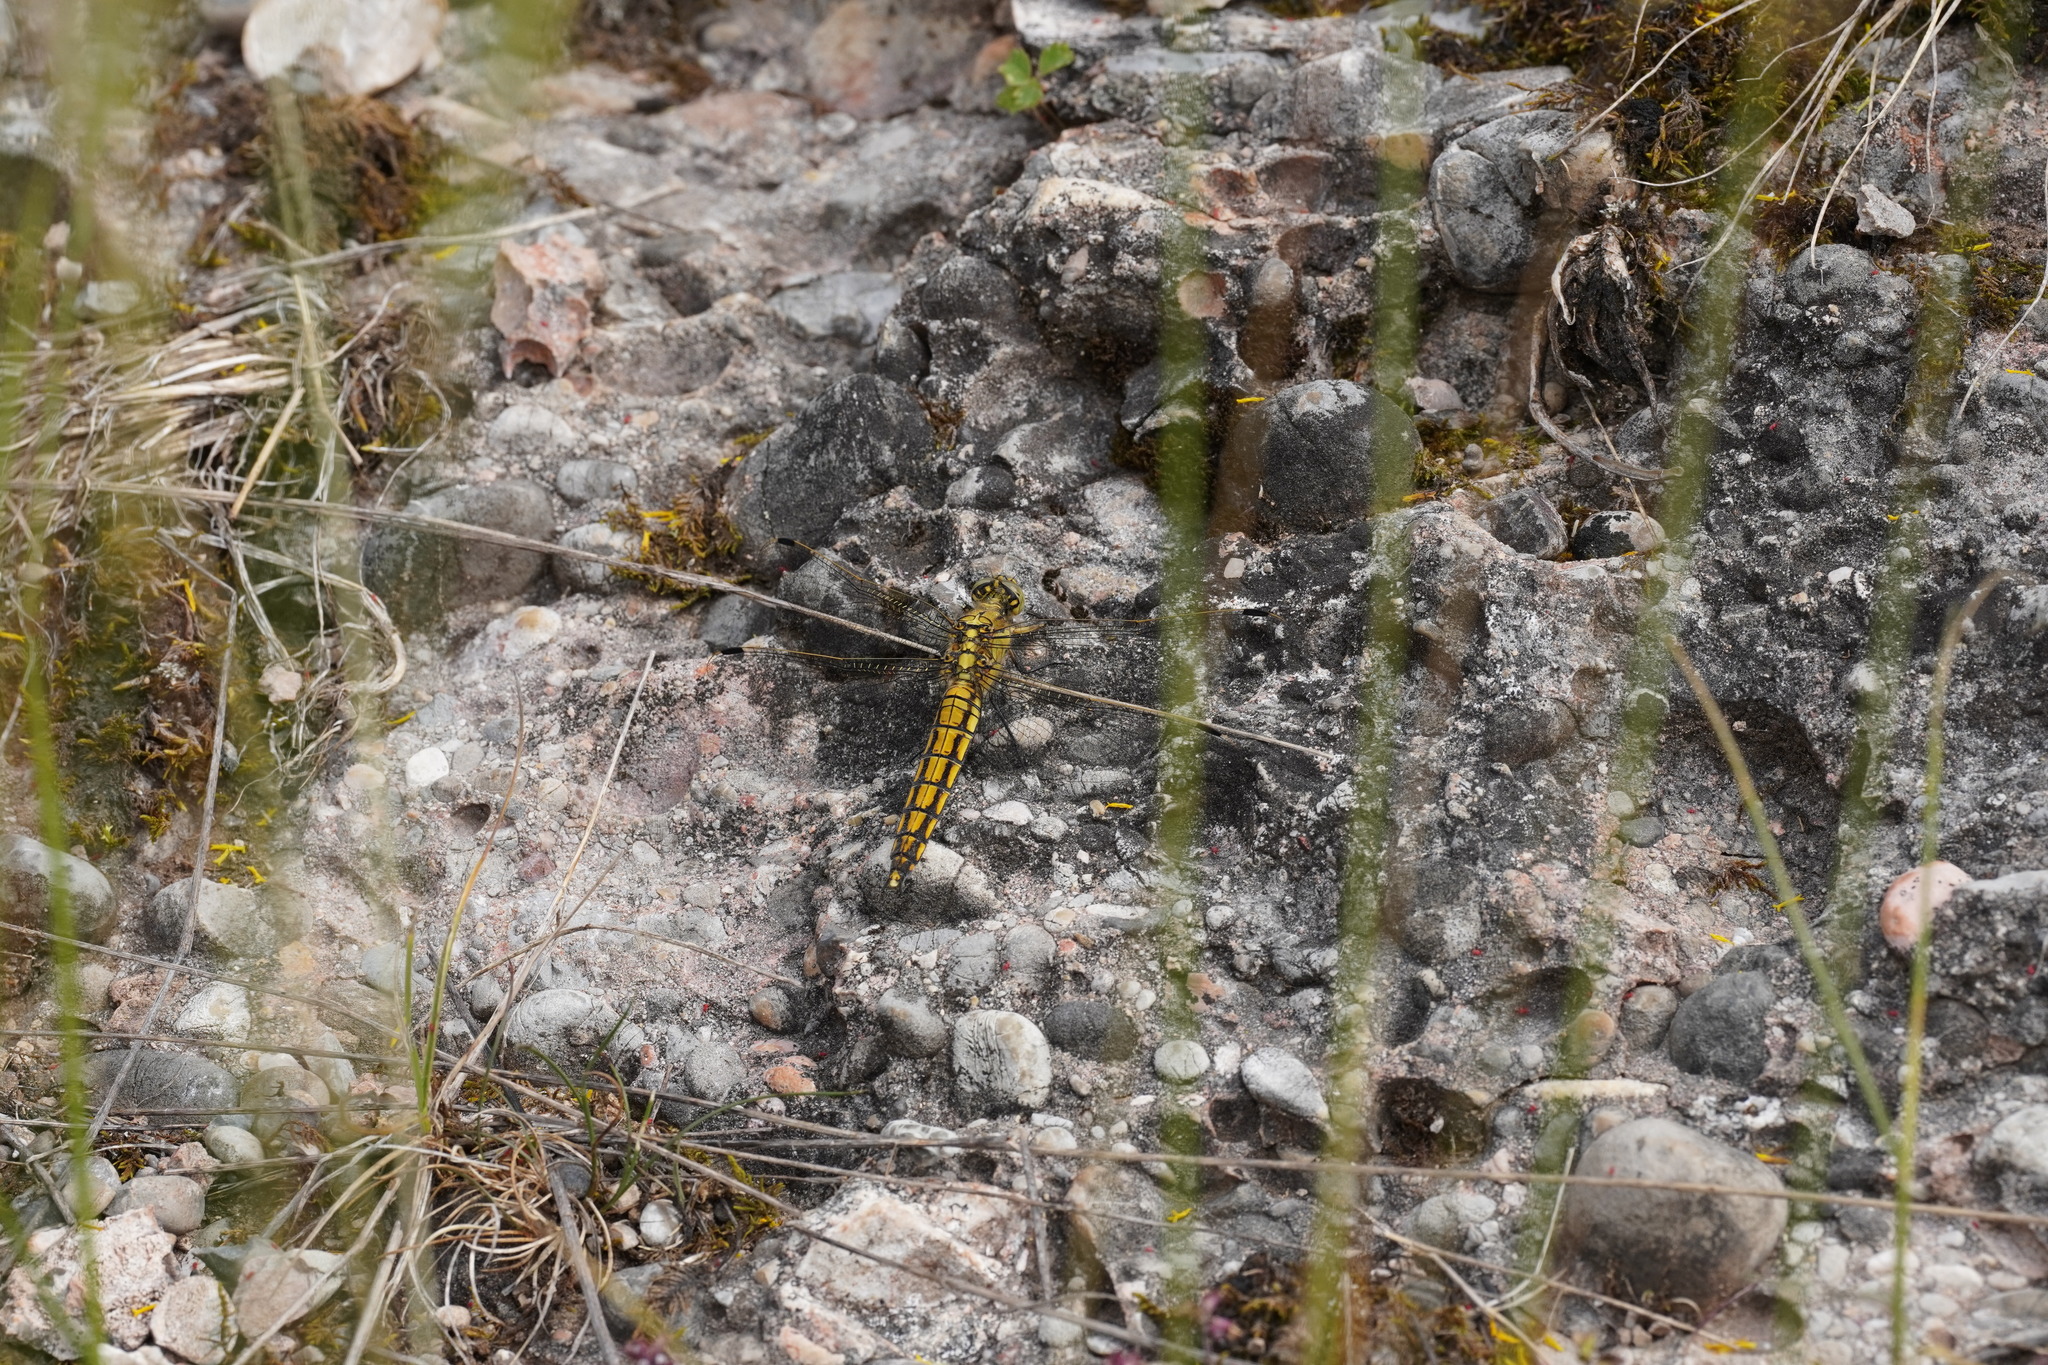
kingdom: Animalia
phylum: Arthropoda
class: Insecta
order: Odonata
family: Libellulidae
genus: Orthetrum
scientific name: Orthetrum cancellatum
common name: Black-tailed skimmer
